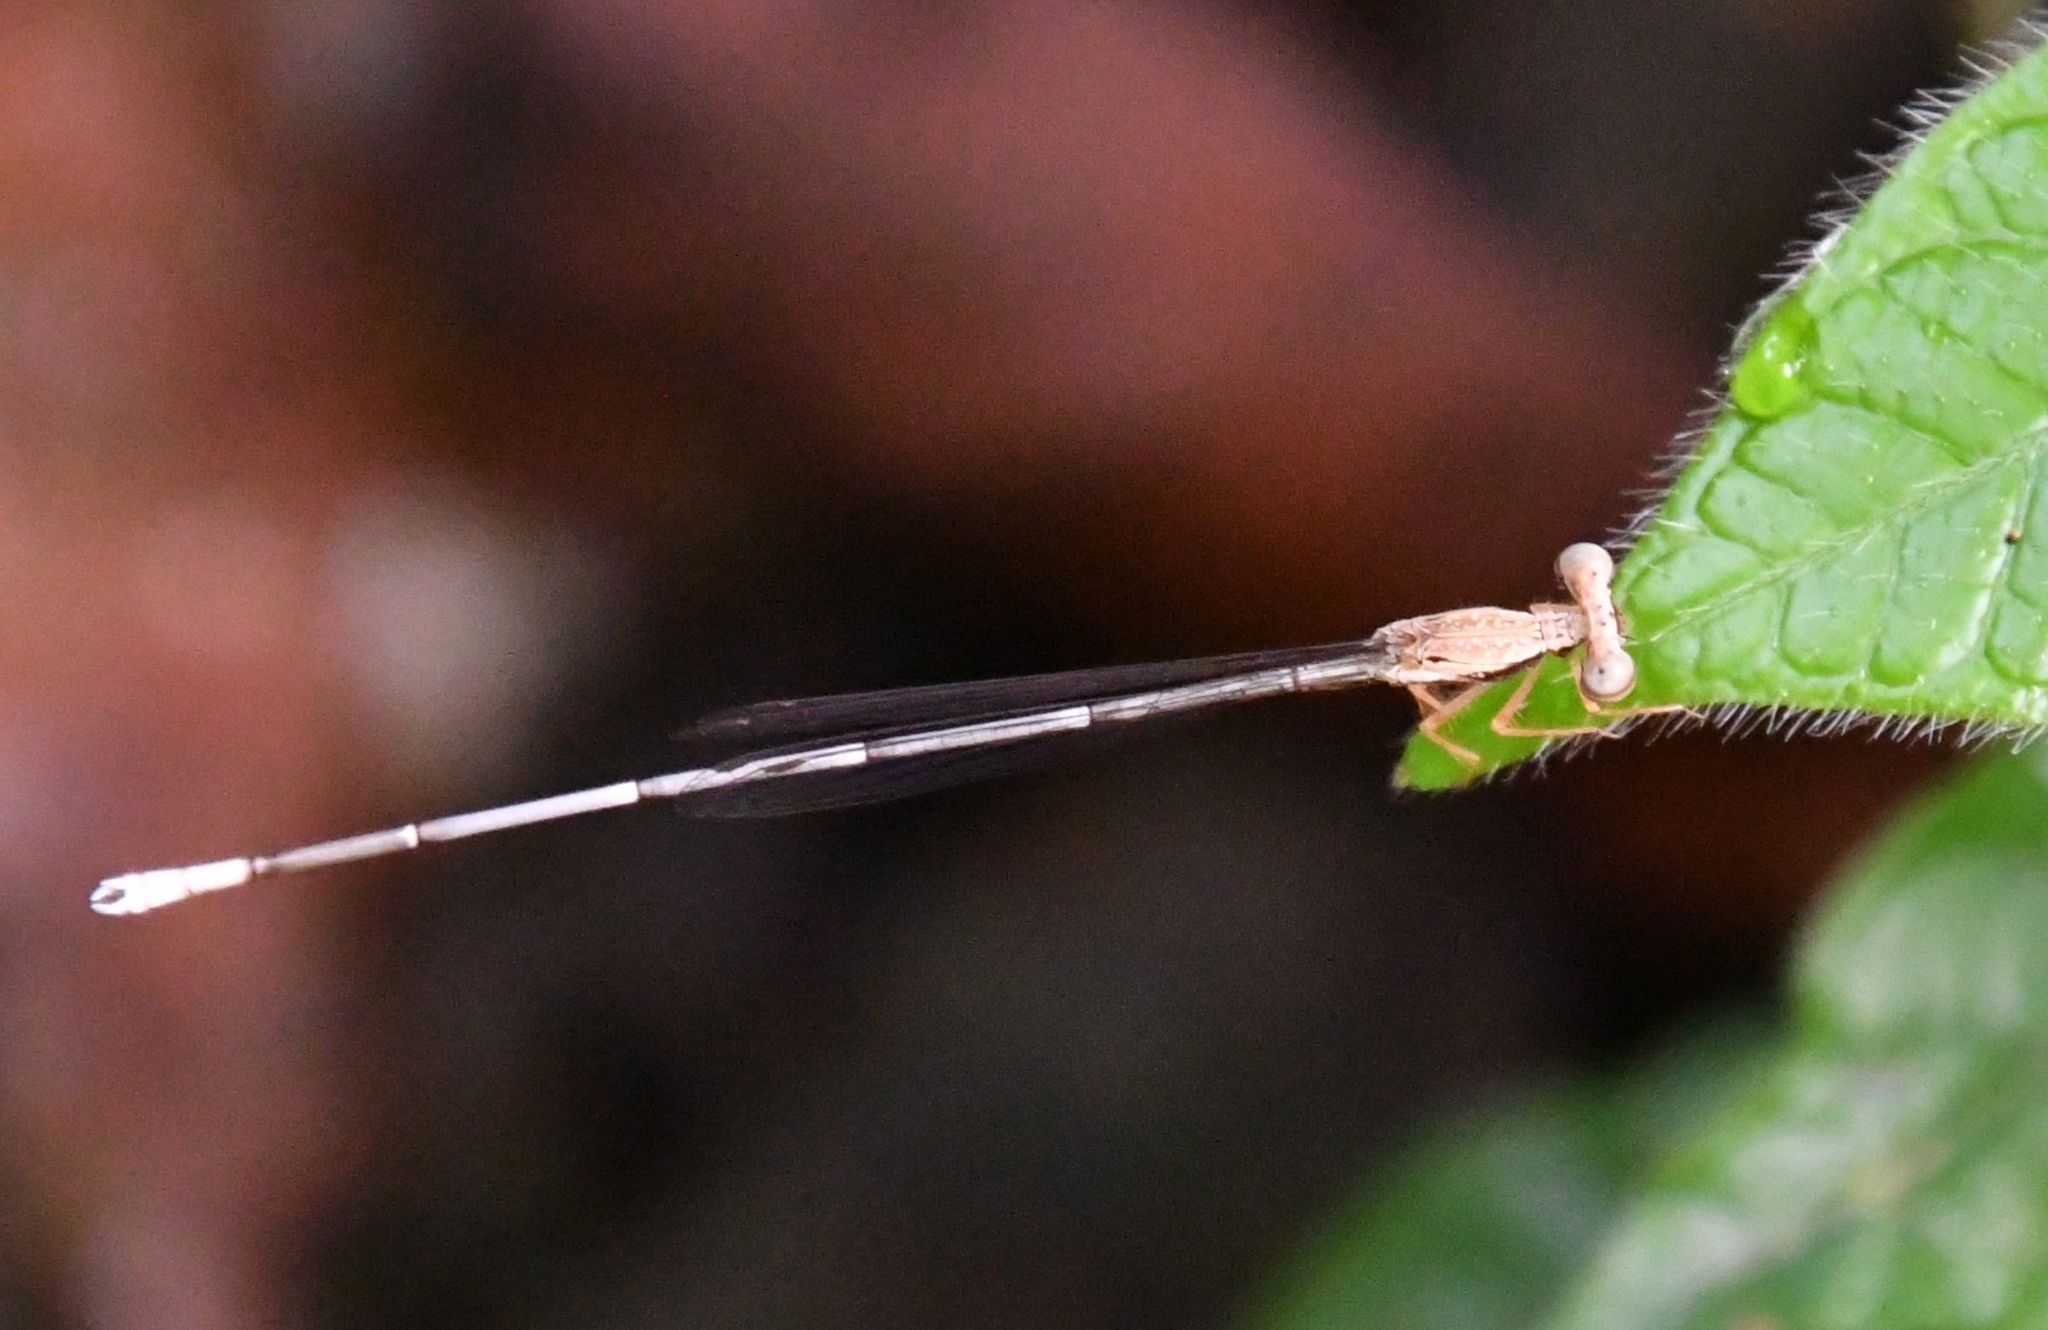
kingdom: Animalia
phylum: Arthropoda
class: Insecta
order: Odonata
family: Platycnemididae
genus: Copera
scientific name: Copera vittata
